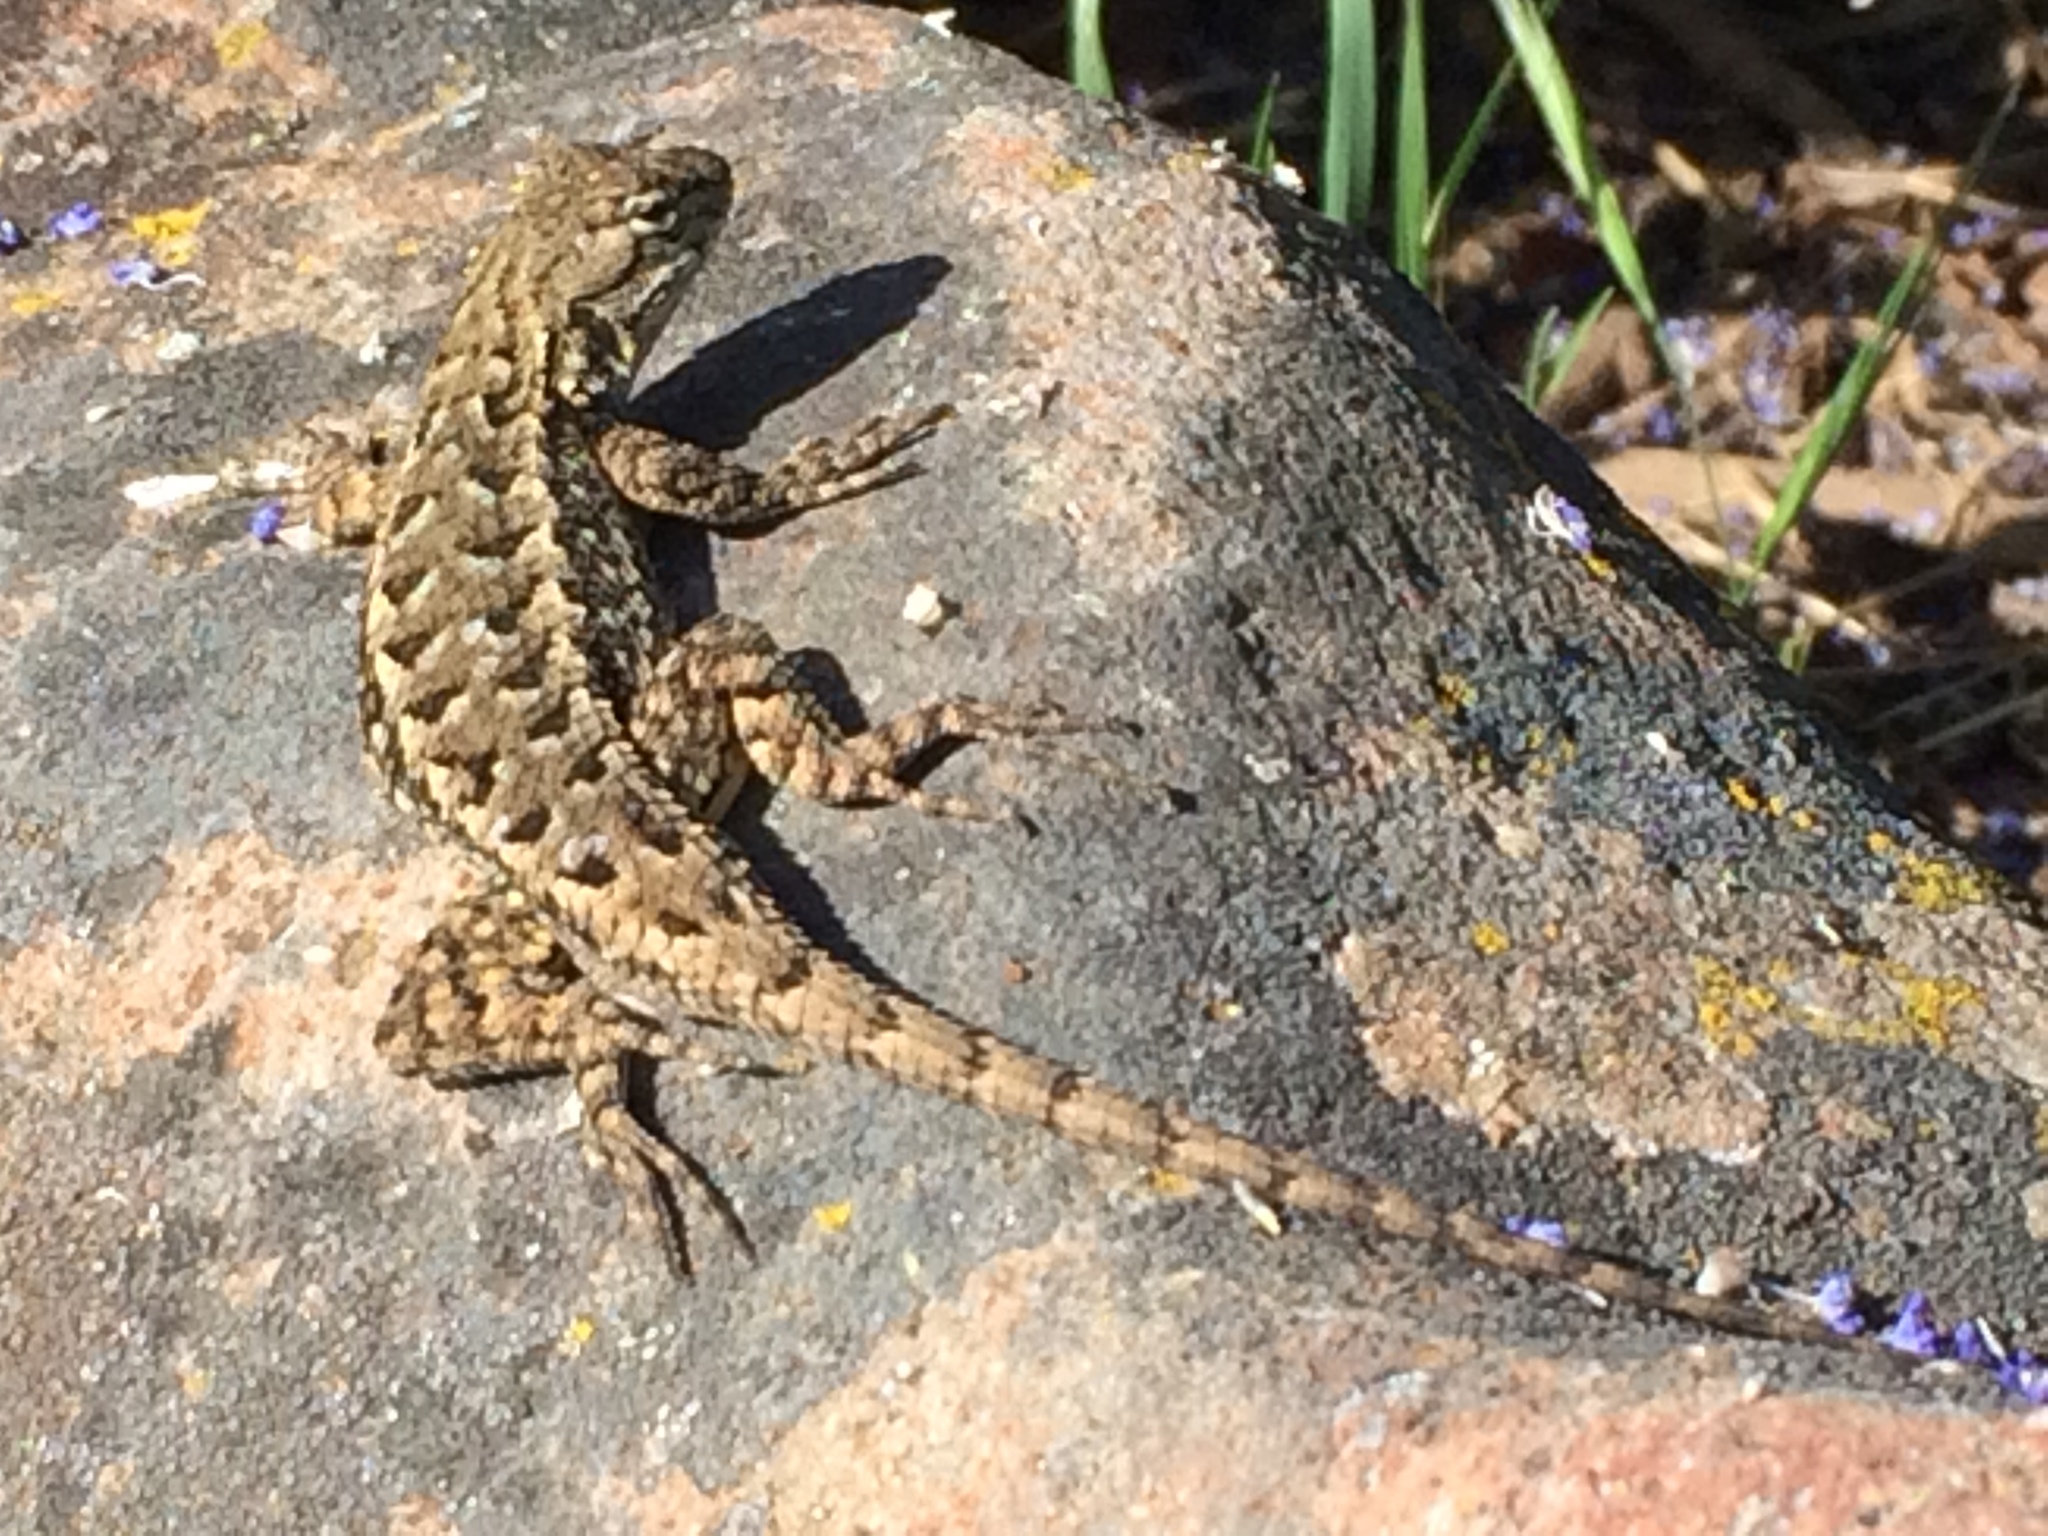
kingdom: Animalia
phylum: Chordata
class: Squamata
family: Phrynosomatidae
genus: Sceloporus
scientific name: Sceloporus occidentalis
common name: Western fence lizard
